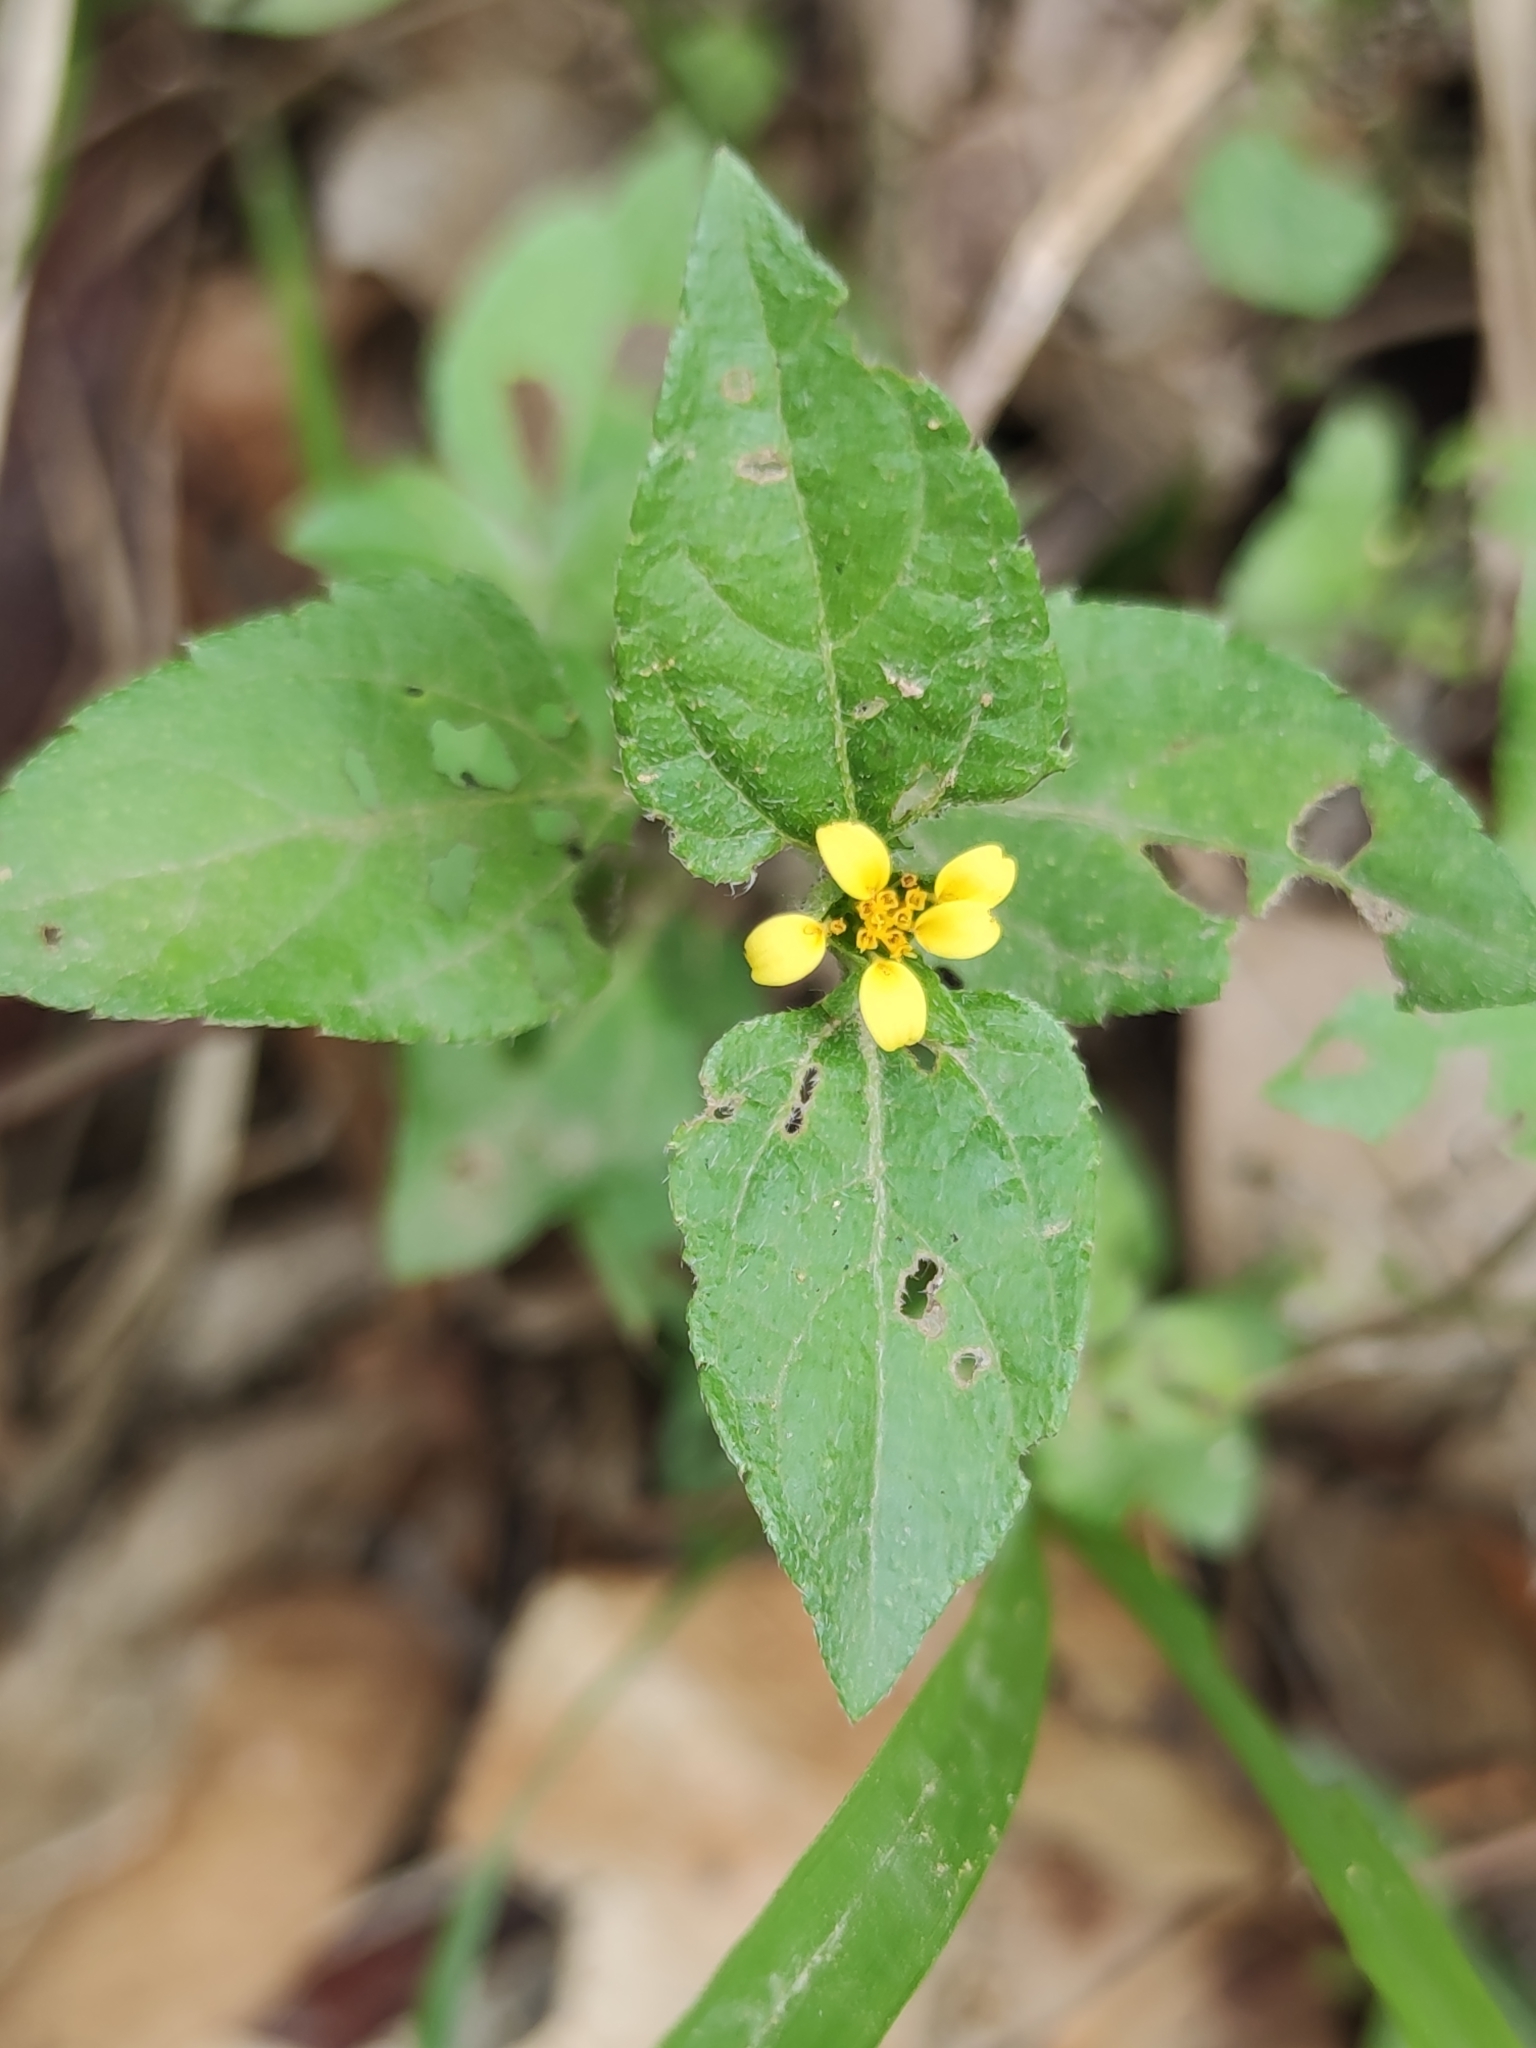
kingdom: Plantae
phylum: Tracheophyta
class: Magnoliopsida
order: Asterales
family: Asteraceae
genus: Calyptocarpus
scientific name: Calyptocarpus vialis
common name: Straggler daisy
